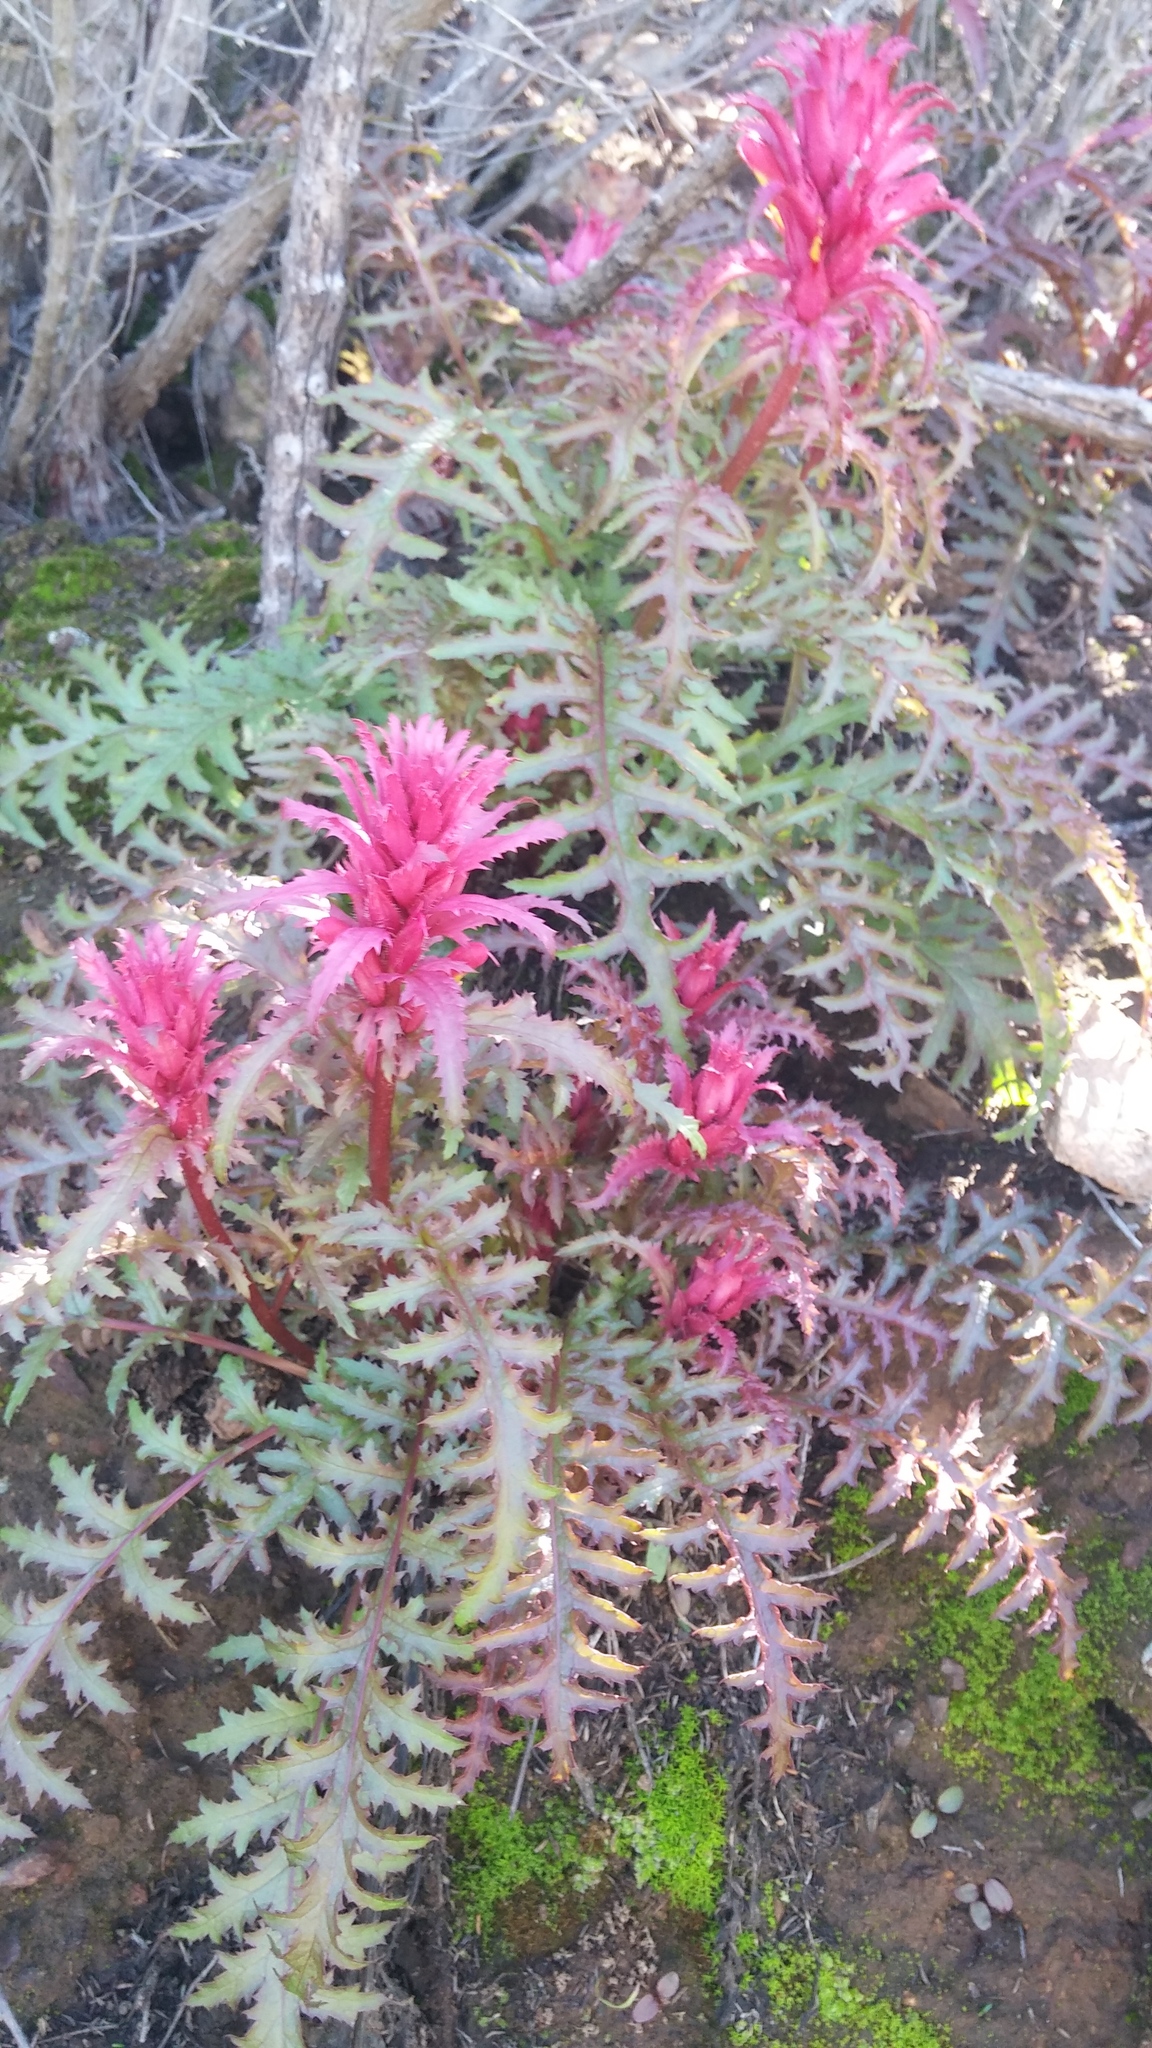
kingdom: Plantae
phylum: Tracheophyta
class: Magnoliopsida
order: Lamiales
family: Orobanchaceae
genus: Pedicularis
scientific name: Pedicularis densiflora
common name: Indian warrior
